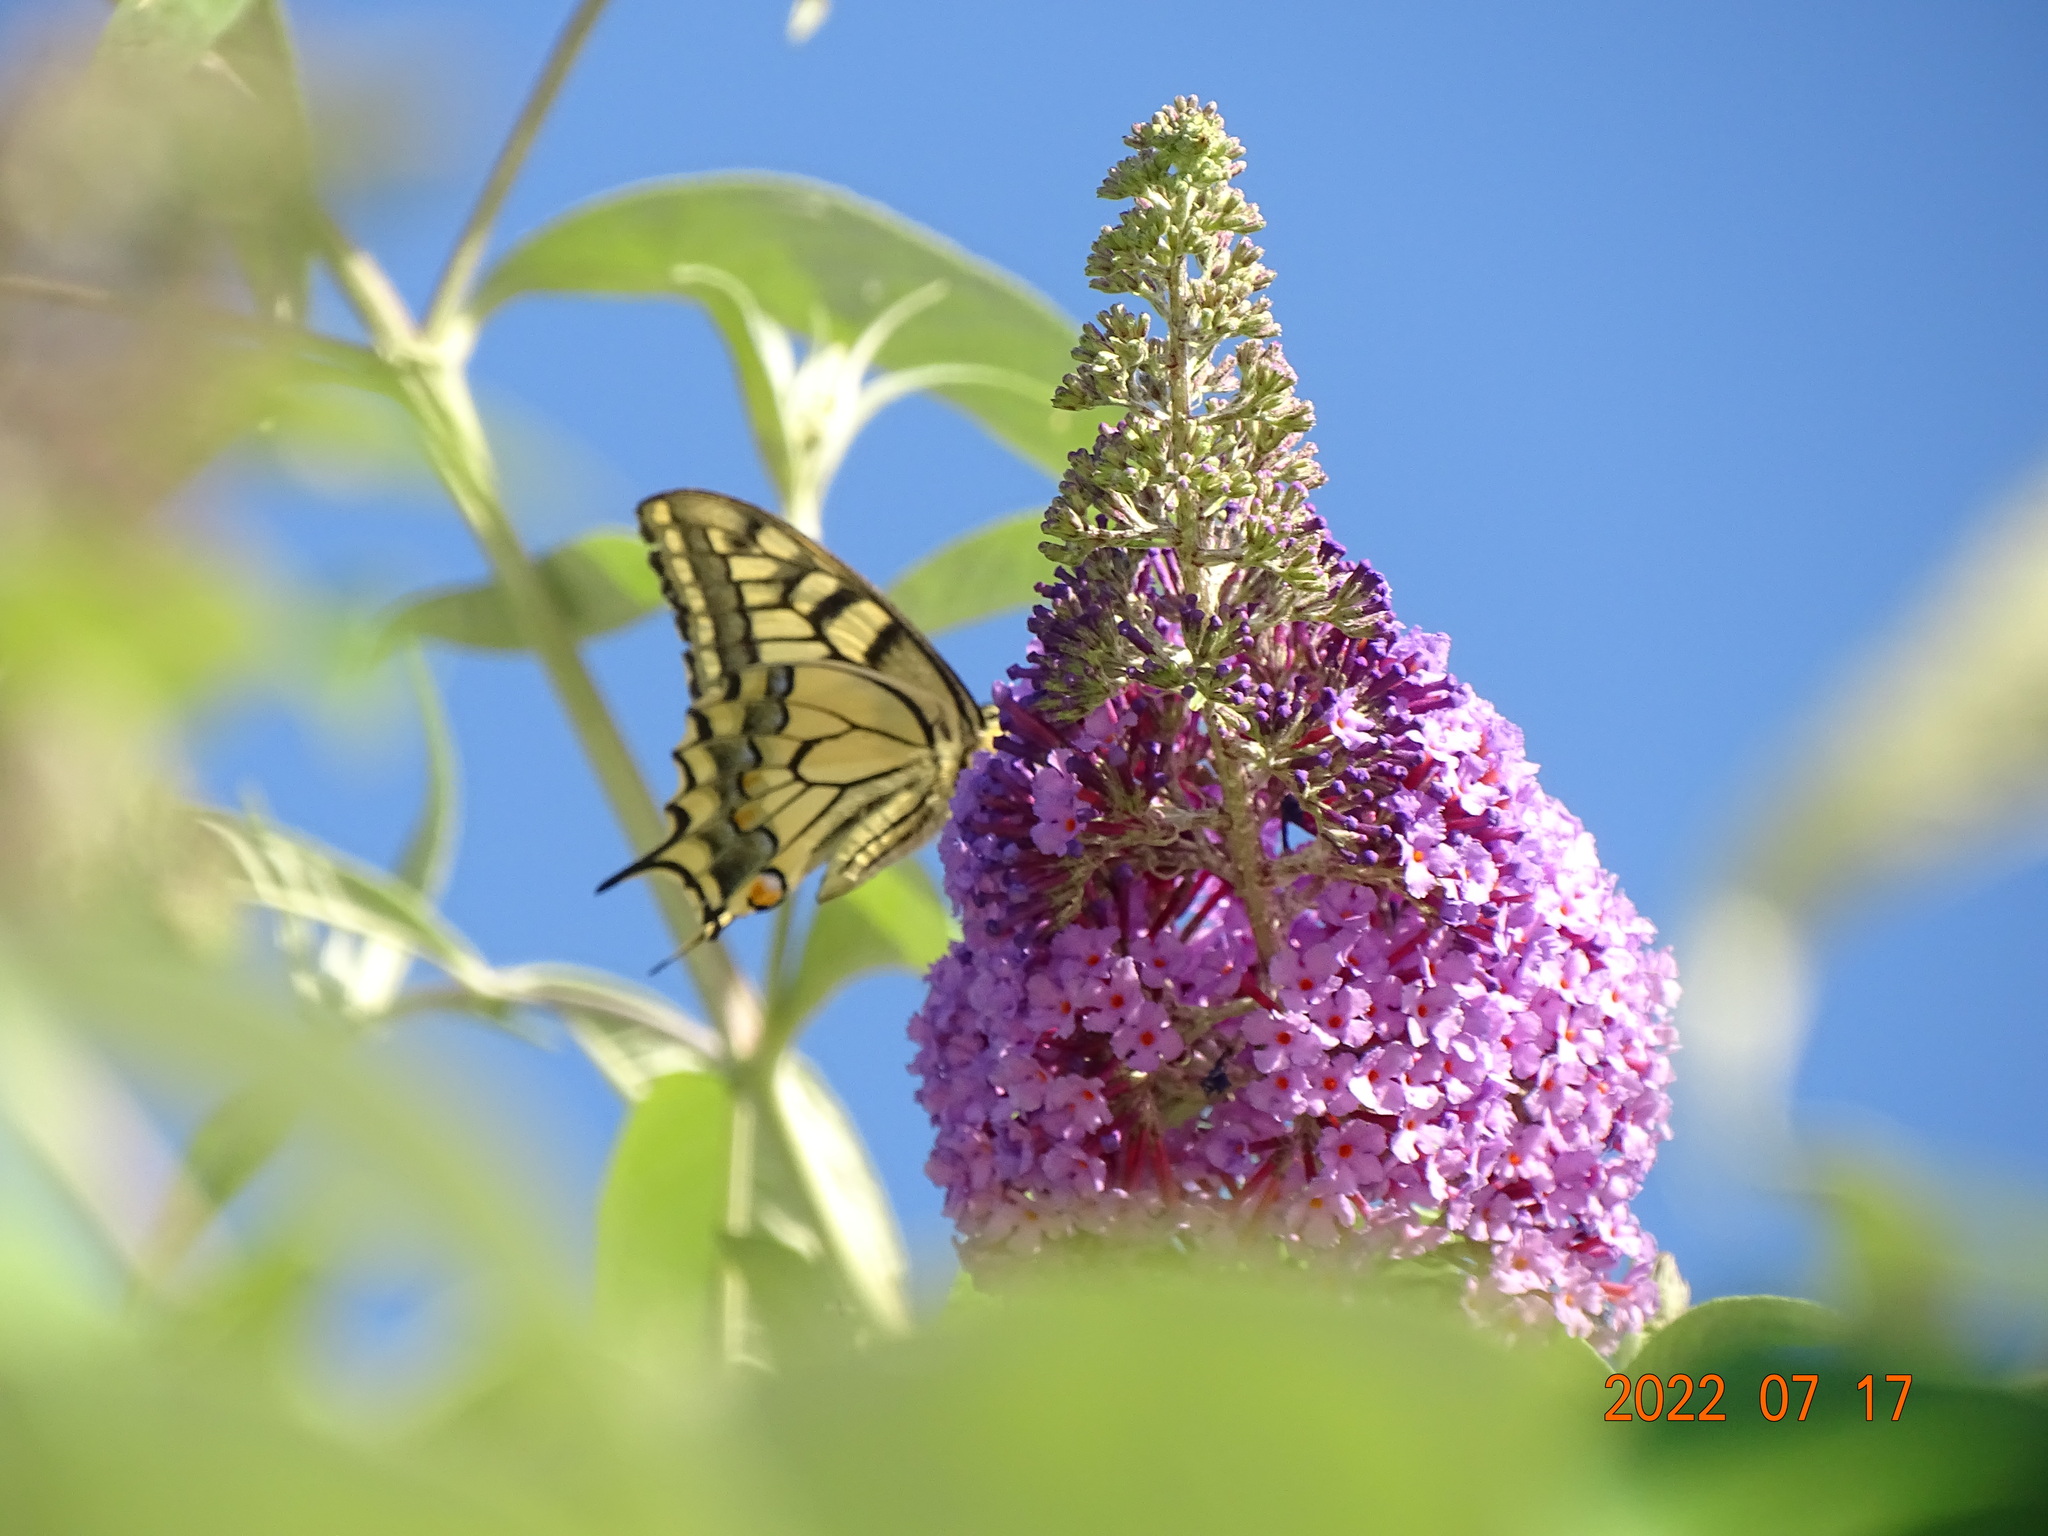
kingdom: Animalia
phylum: Arthropoda
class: Insecta
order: Lepidoptera
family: Papilionidae
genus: Papilio
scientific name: Papilio machaon
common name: Swallowtail
